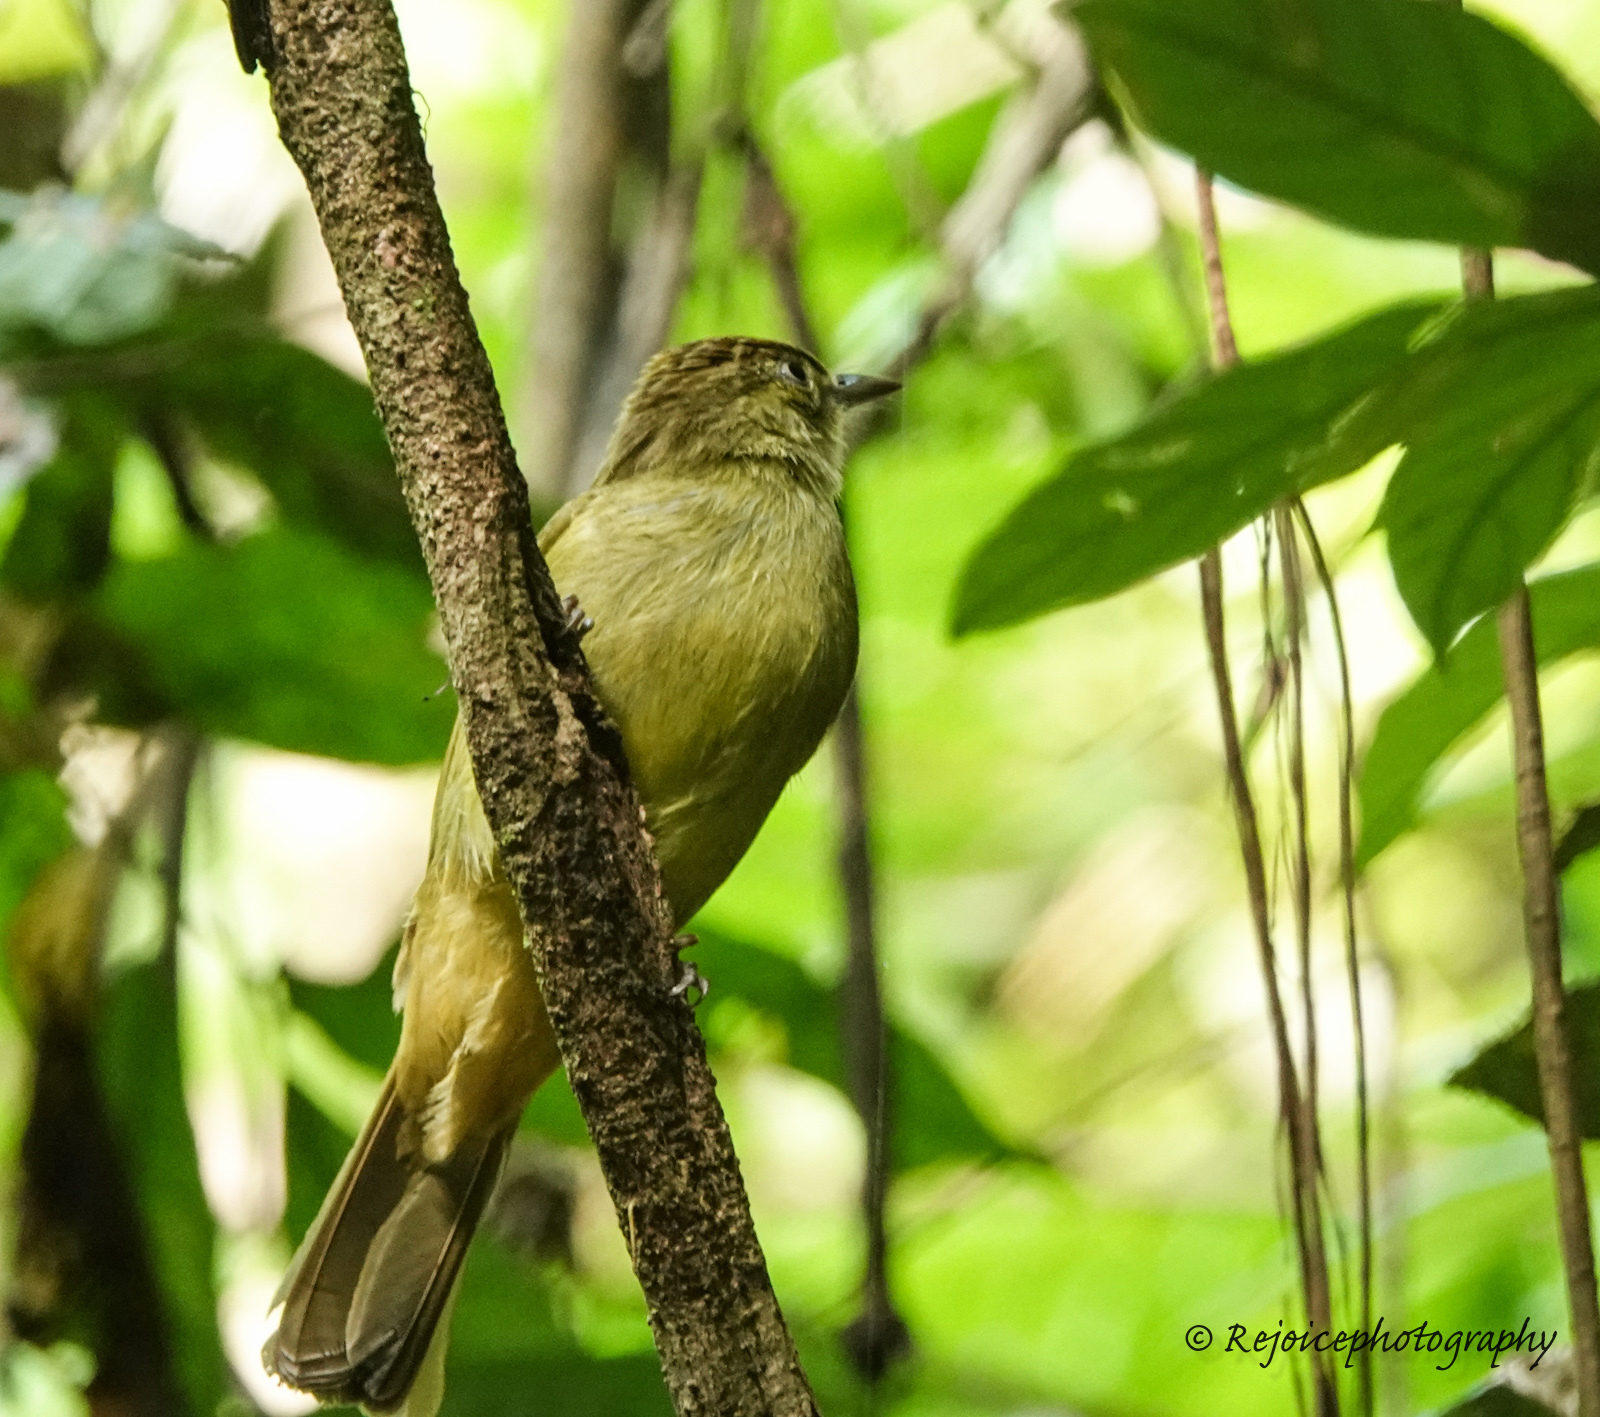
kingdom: Animalia
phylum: Chordata
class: Aves
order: Passeriformes
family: Pycnonotidae
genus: Iole
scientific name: Iole virescens
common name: Olive bulbul
